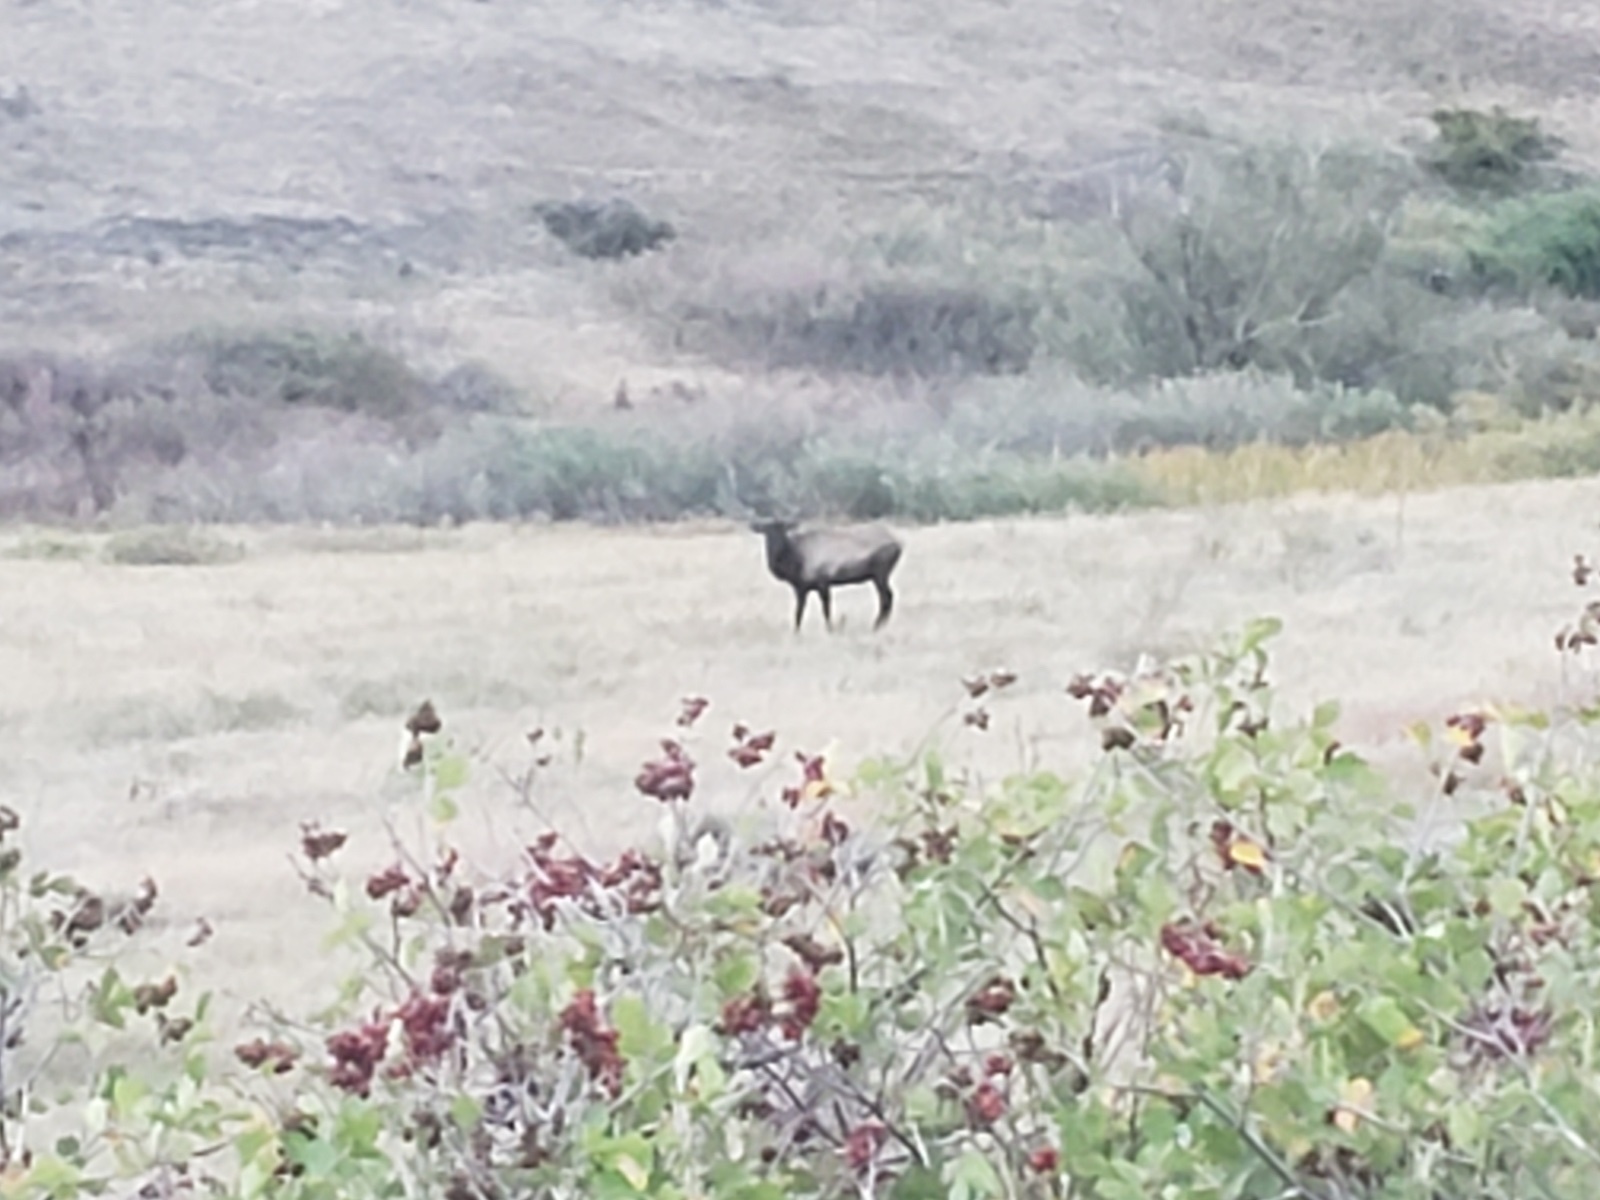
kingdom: Animalia
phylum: Chordata
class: Mammalia
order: Artiodactyla
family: Cervidae
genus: Cervus
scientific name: Cervus elaphus
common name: Red deer
